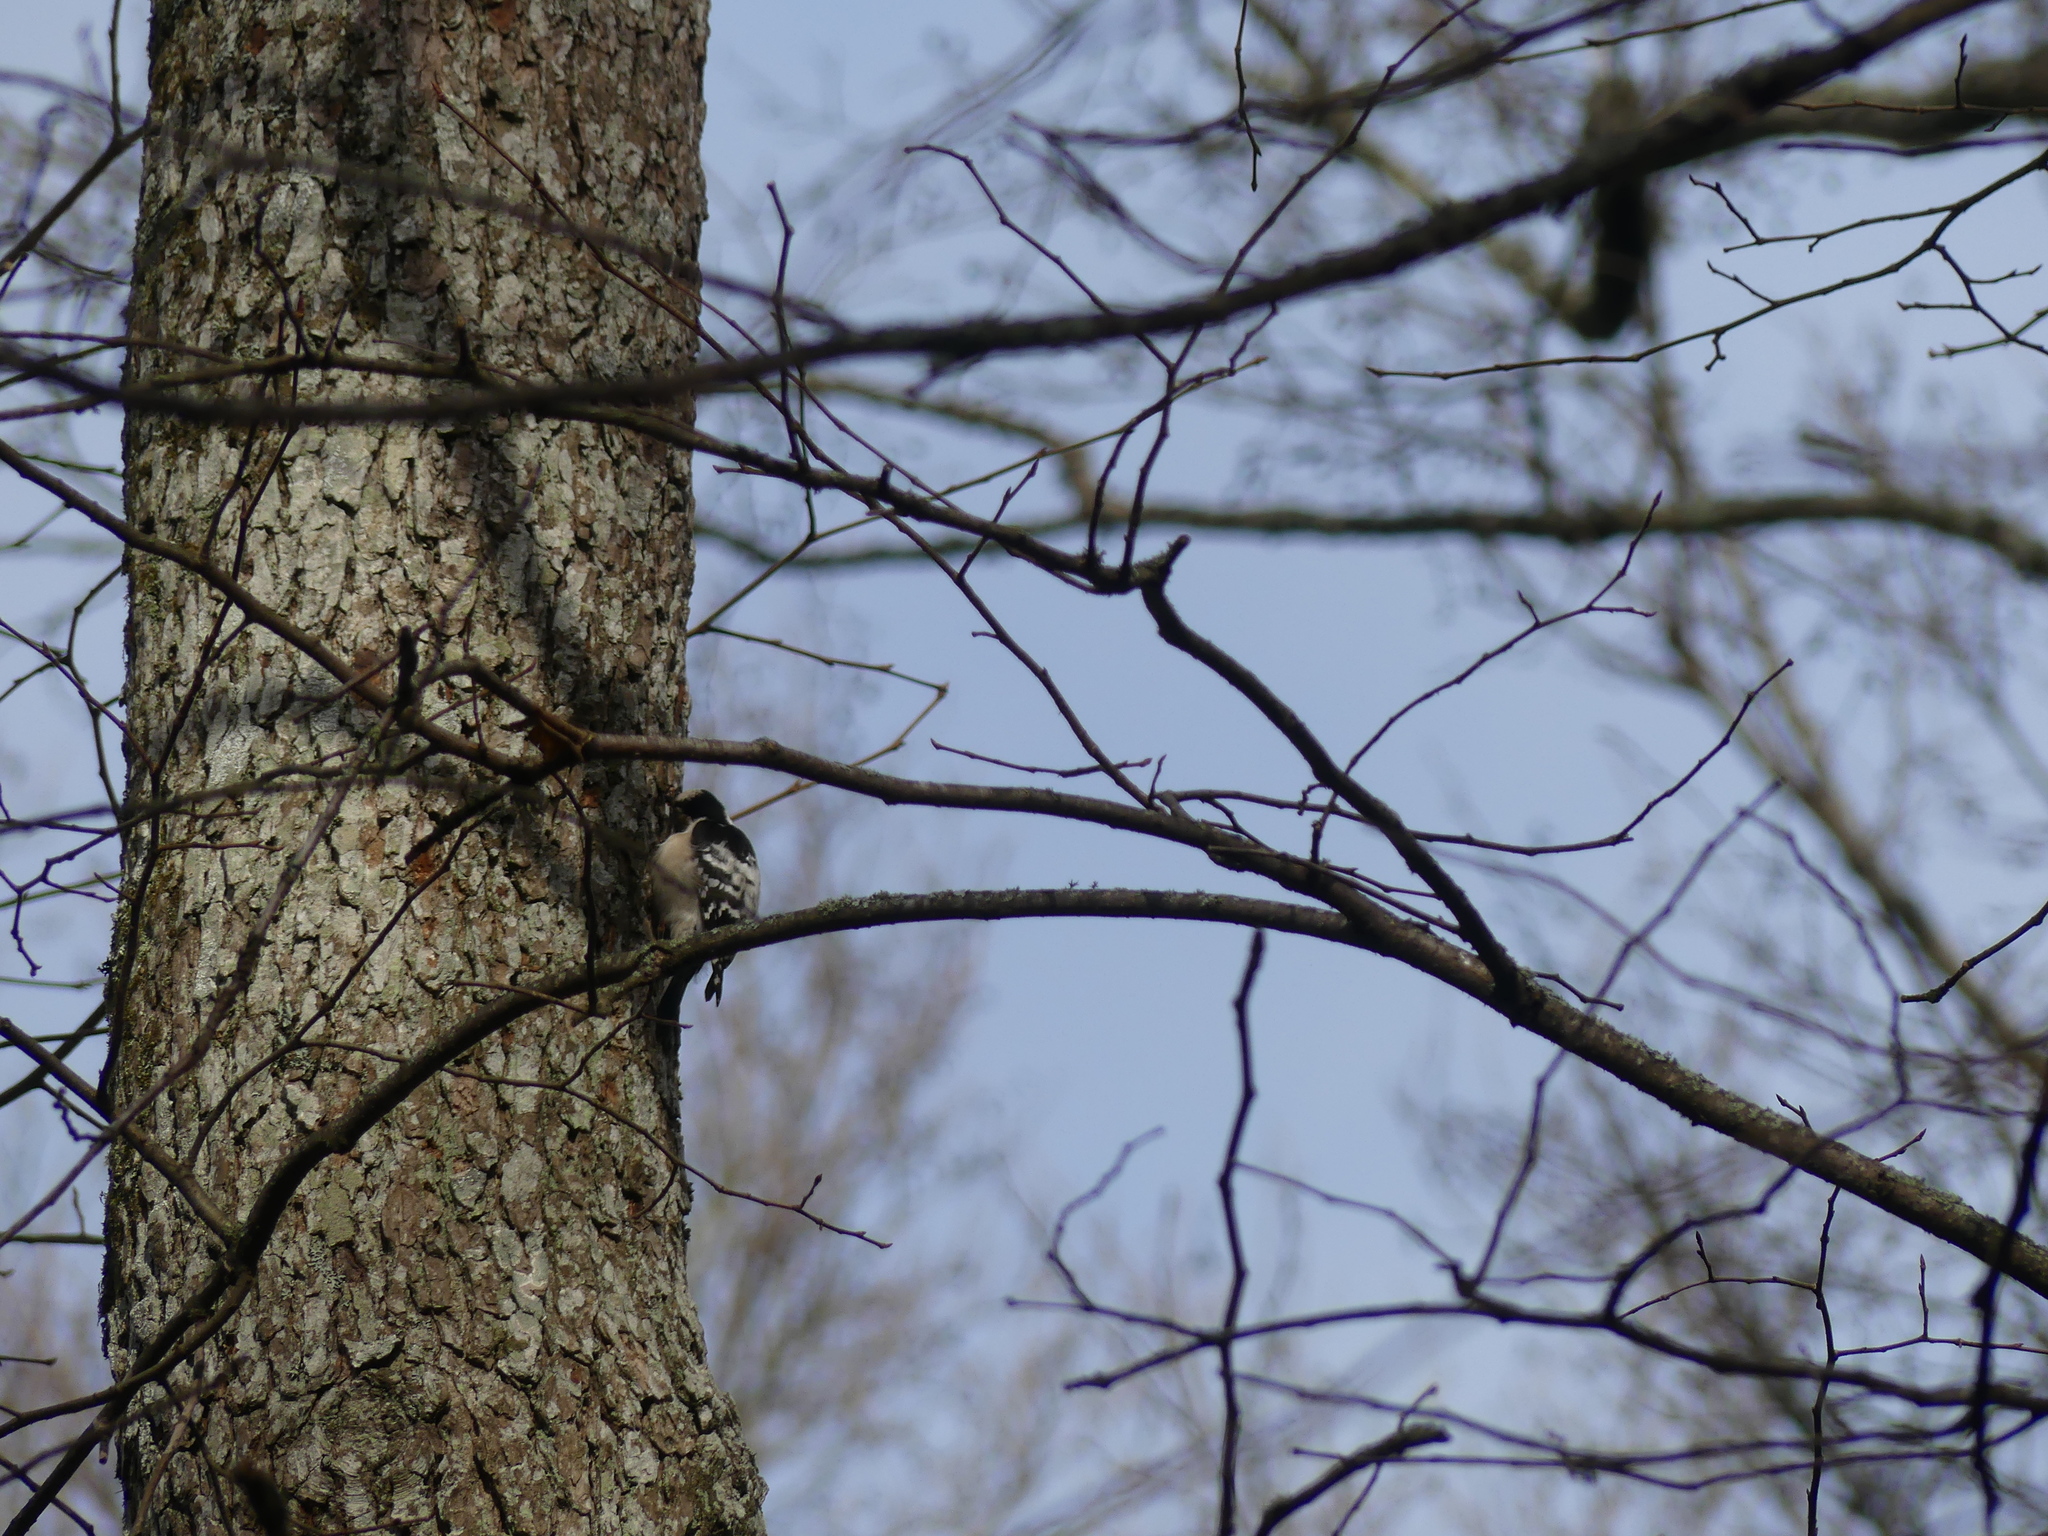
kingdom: Animalia
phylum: Chordata
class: Aves
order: Piciformes
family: Picidae
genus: Dryobates
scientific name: Dryobates minor
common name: Lesser spotted woodpecker
